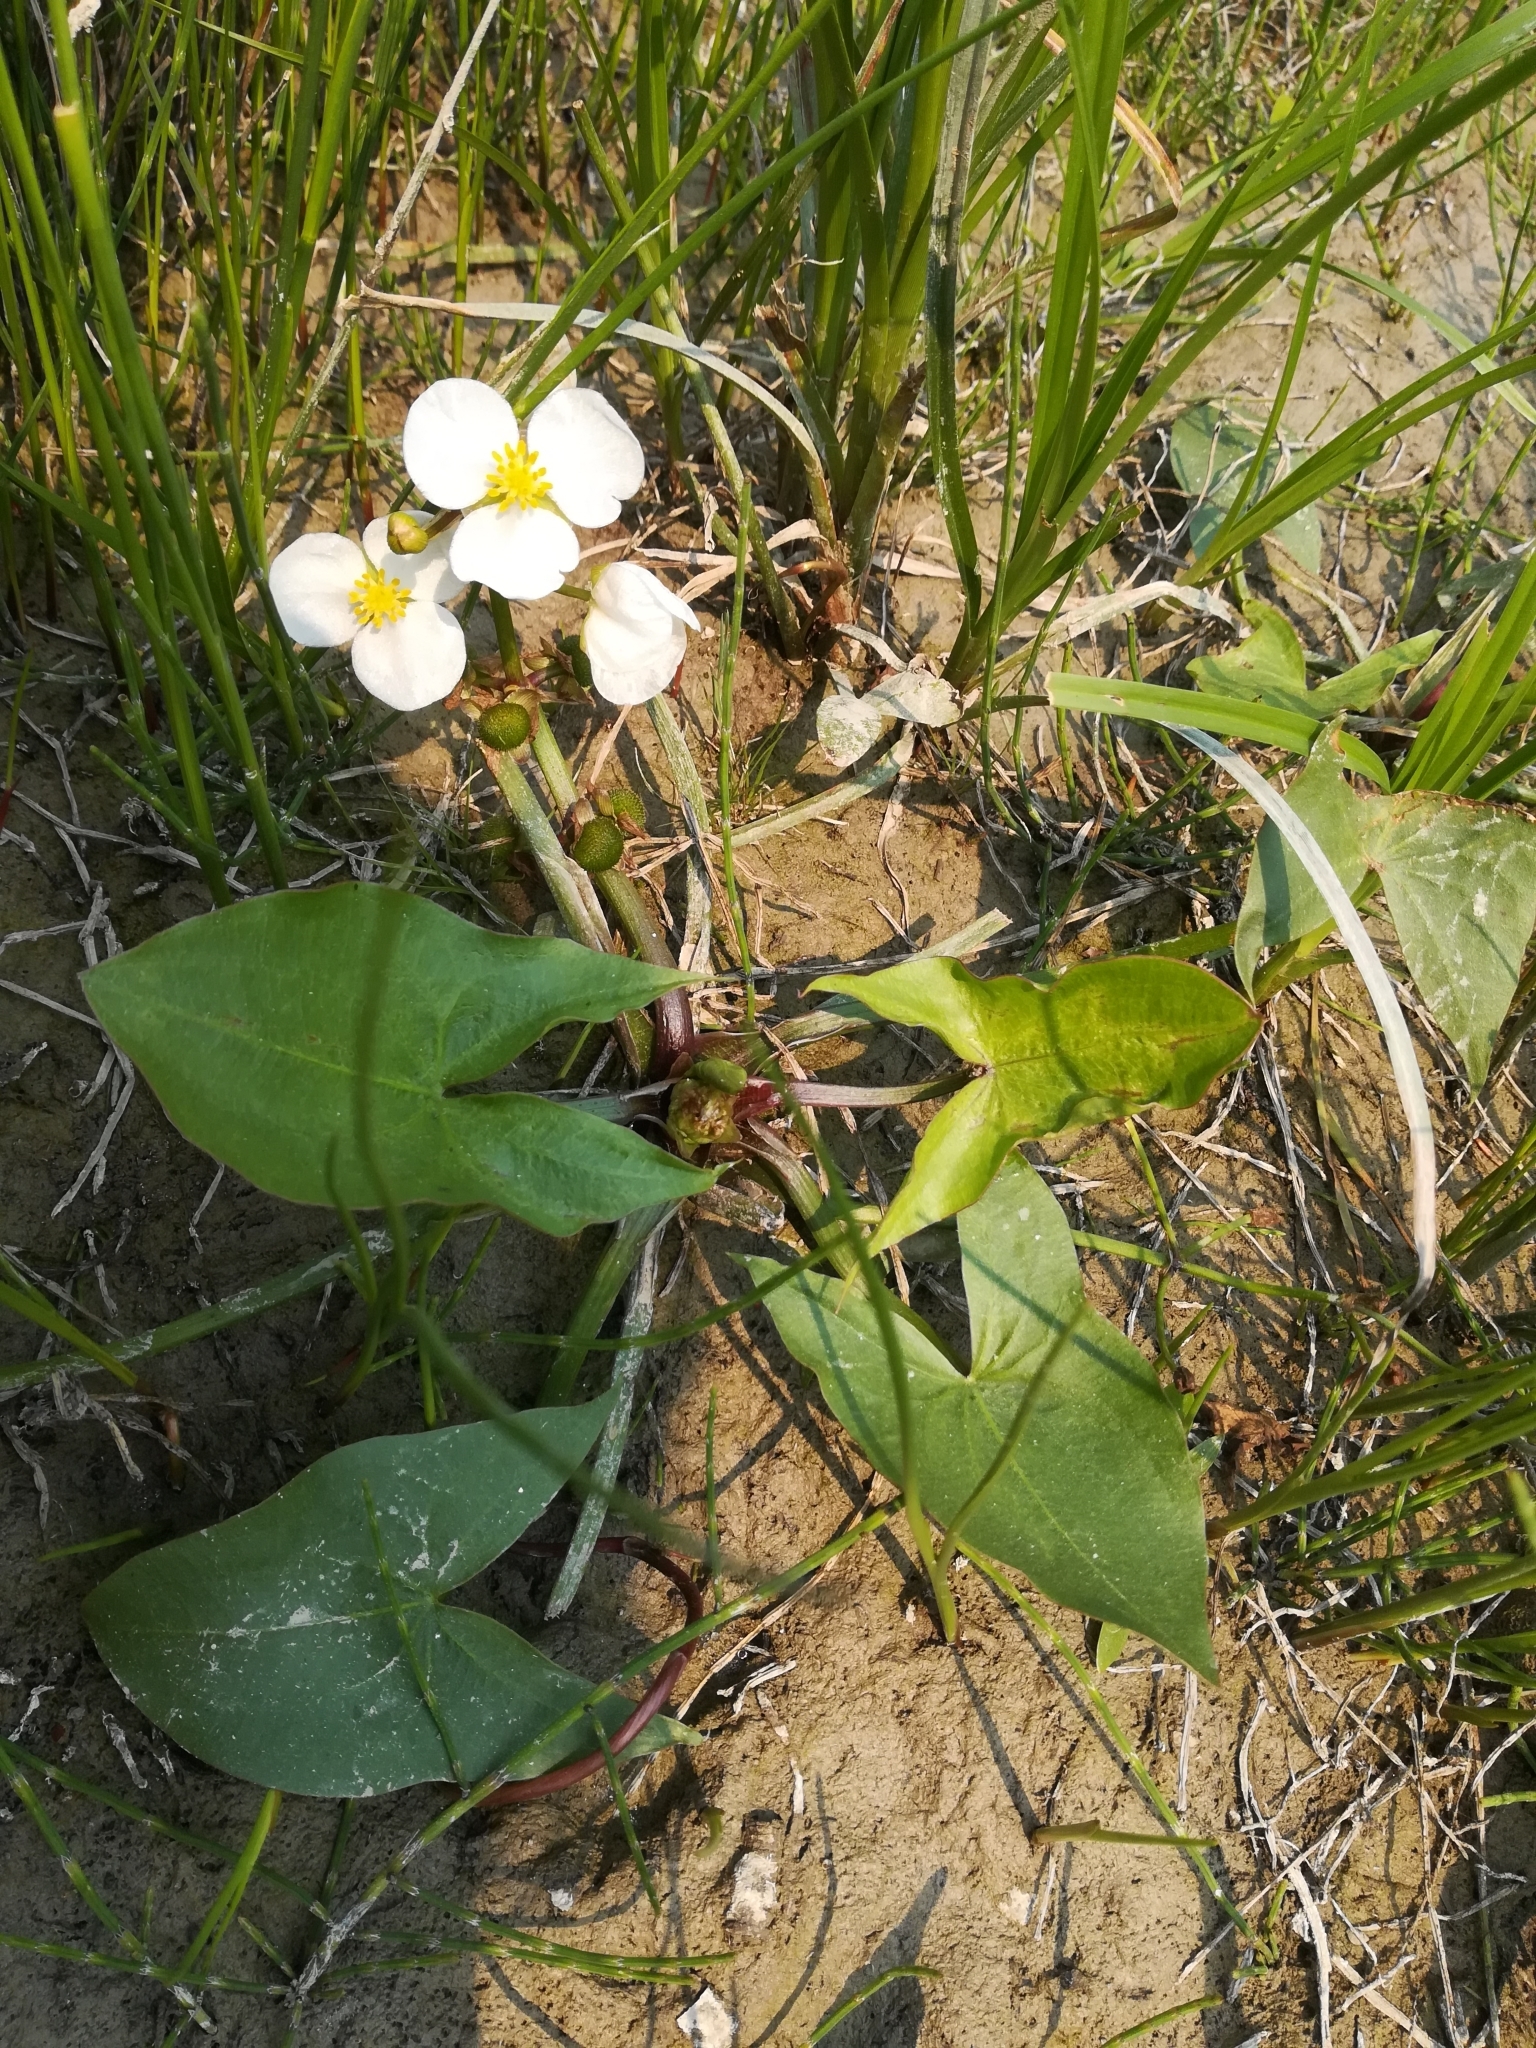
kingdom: Plantae
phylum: Tracheophyta
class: Liliopsida
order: Alismatales
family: Alismataceae
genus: Sagittaria
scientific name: Sagittaria cuneata
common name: Northern arrowhead
